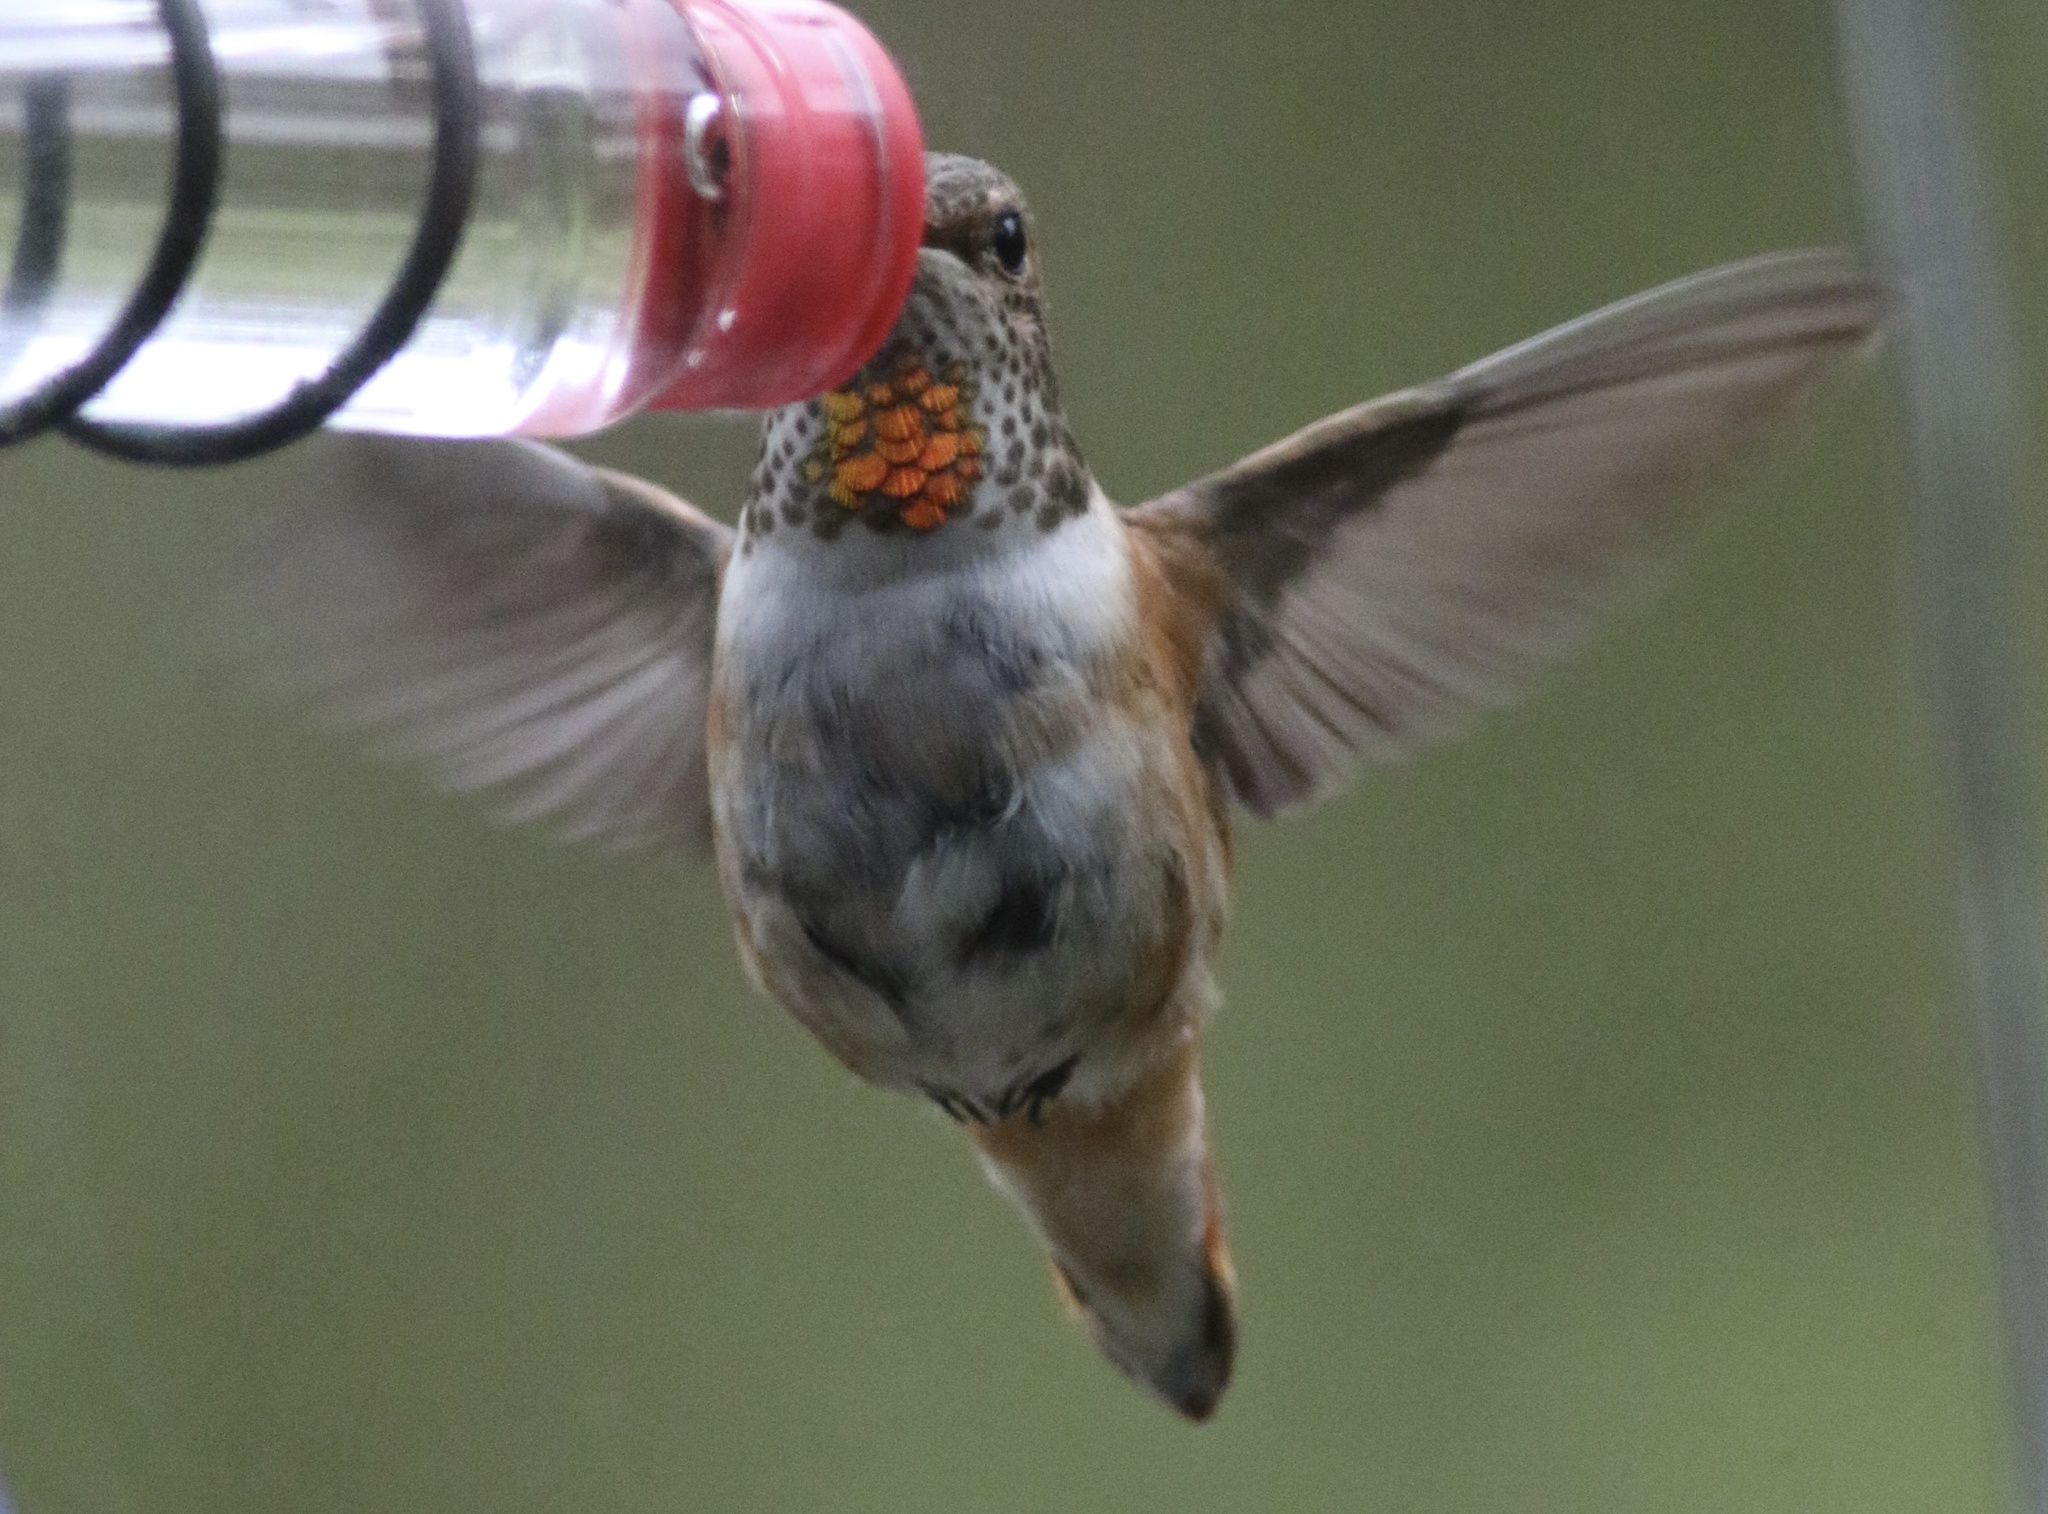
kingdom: Animalia
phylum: Chordata
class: Aves
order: Apodiformes
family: Trochilidae
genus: Selasphorus
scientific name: Selasphorus sasin
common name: Allen's hummingbird
